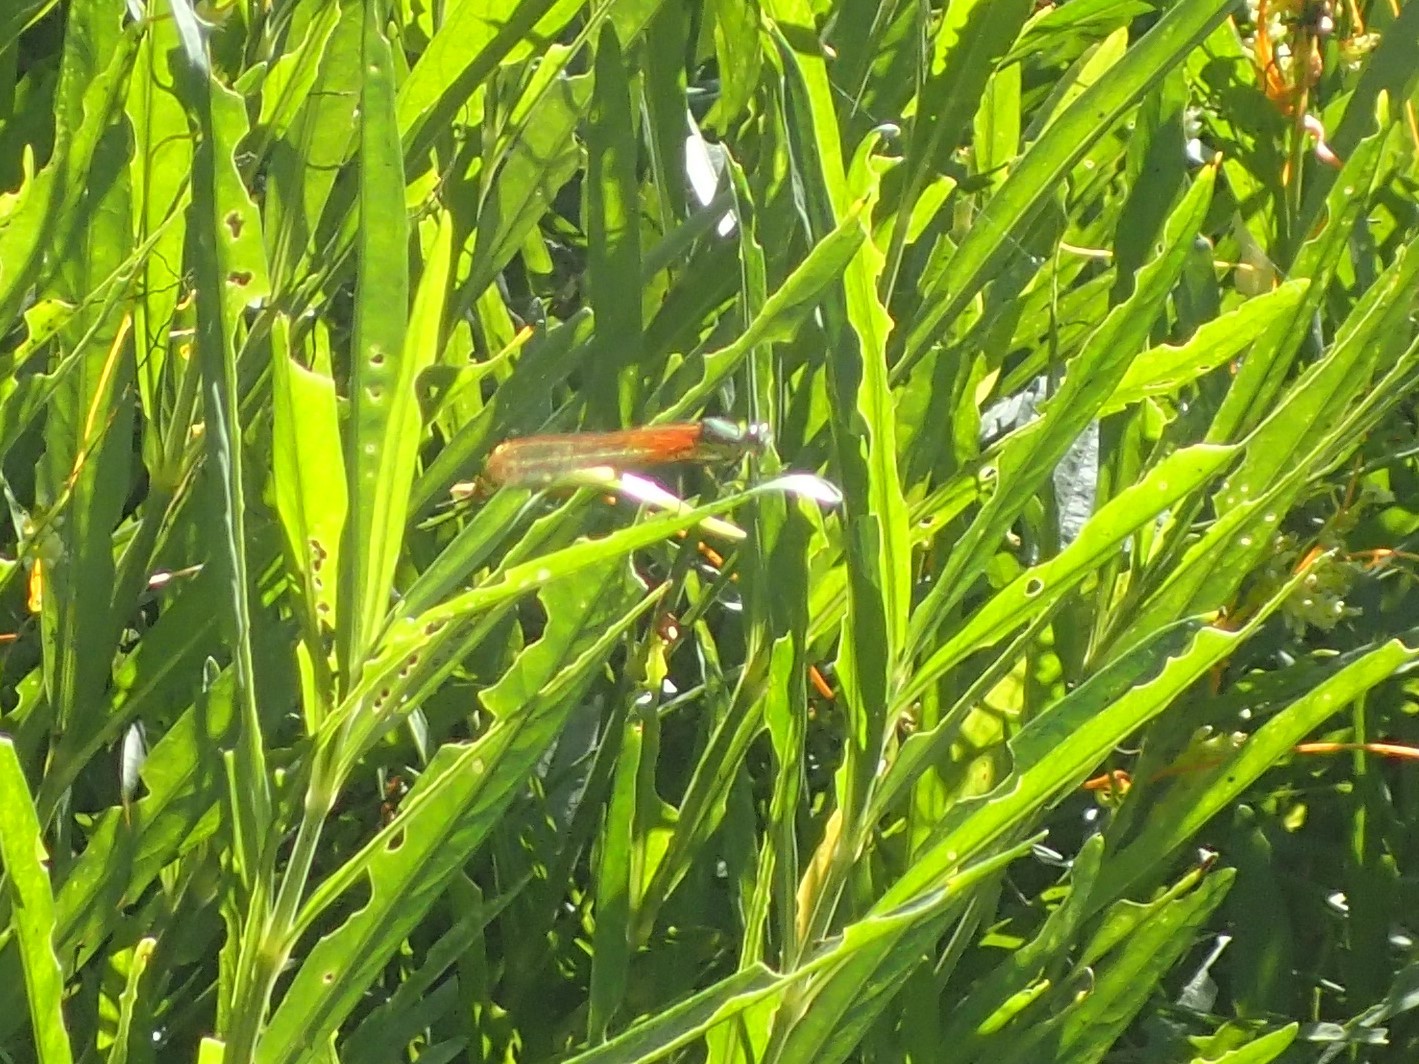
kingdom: Animalia
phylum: Arthropoda
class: Insecta
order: Odonata
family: Calopterygidae
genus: Hetaerina
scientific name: Hetaerina americana
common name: American rubyspot
